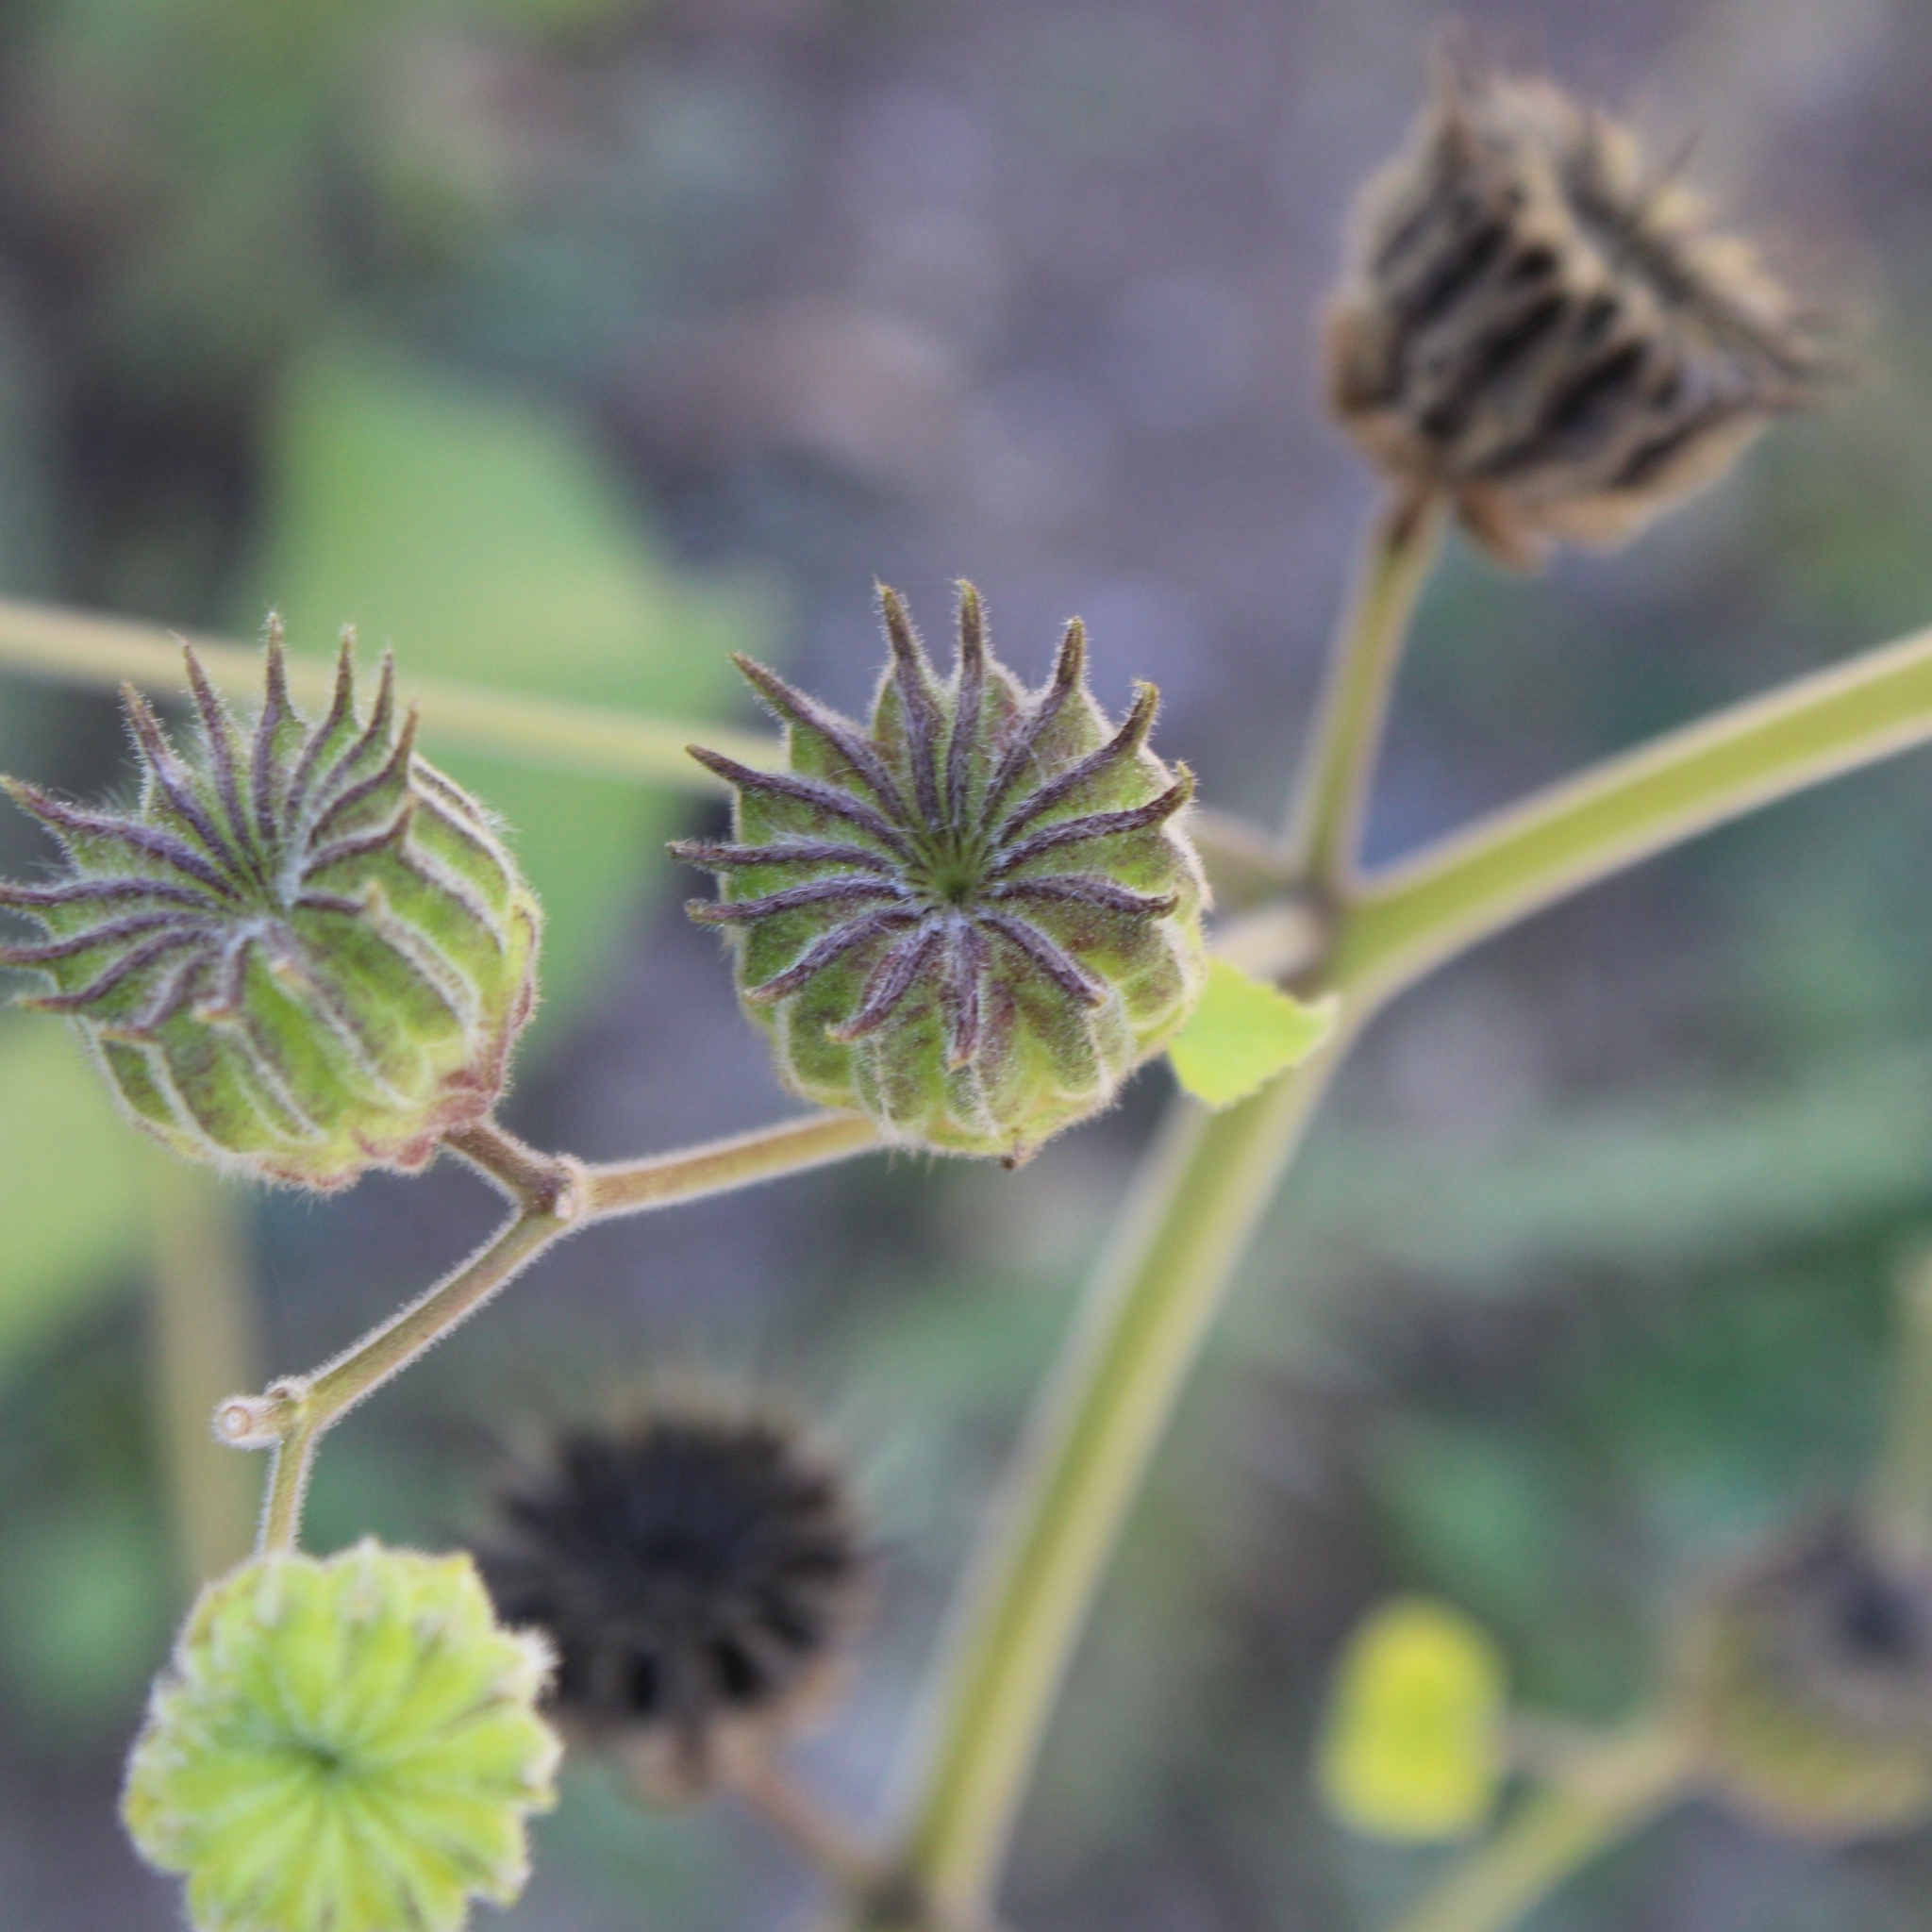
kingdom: Plantae
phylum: Tracheophyta
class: Magnoliopsida
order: Malvales
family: Malvaceae
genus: Abutilon
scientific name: Abutilon theophrasti
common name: Velvetleaf
